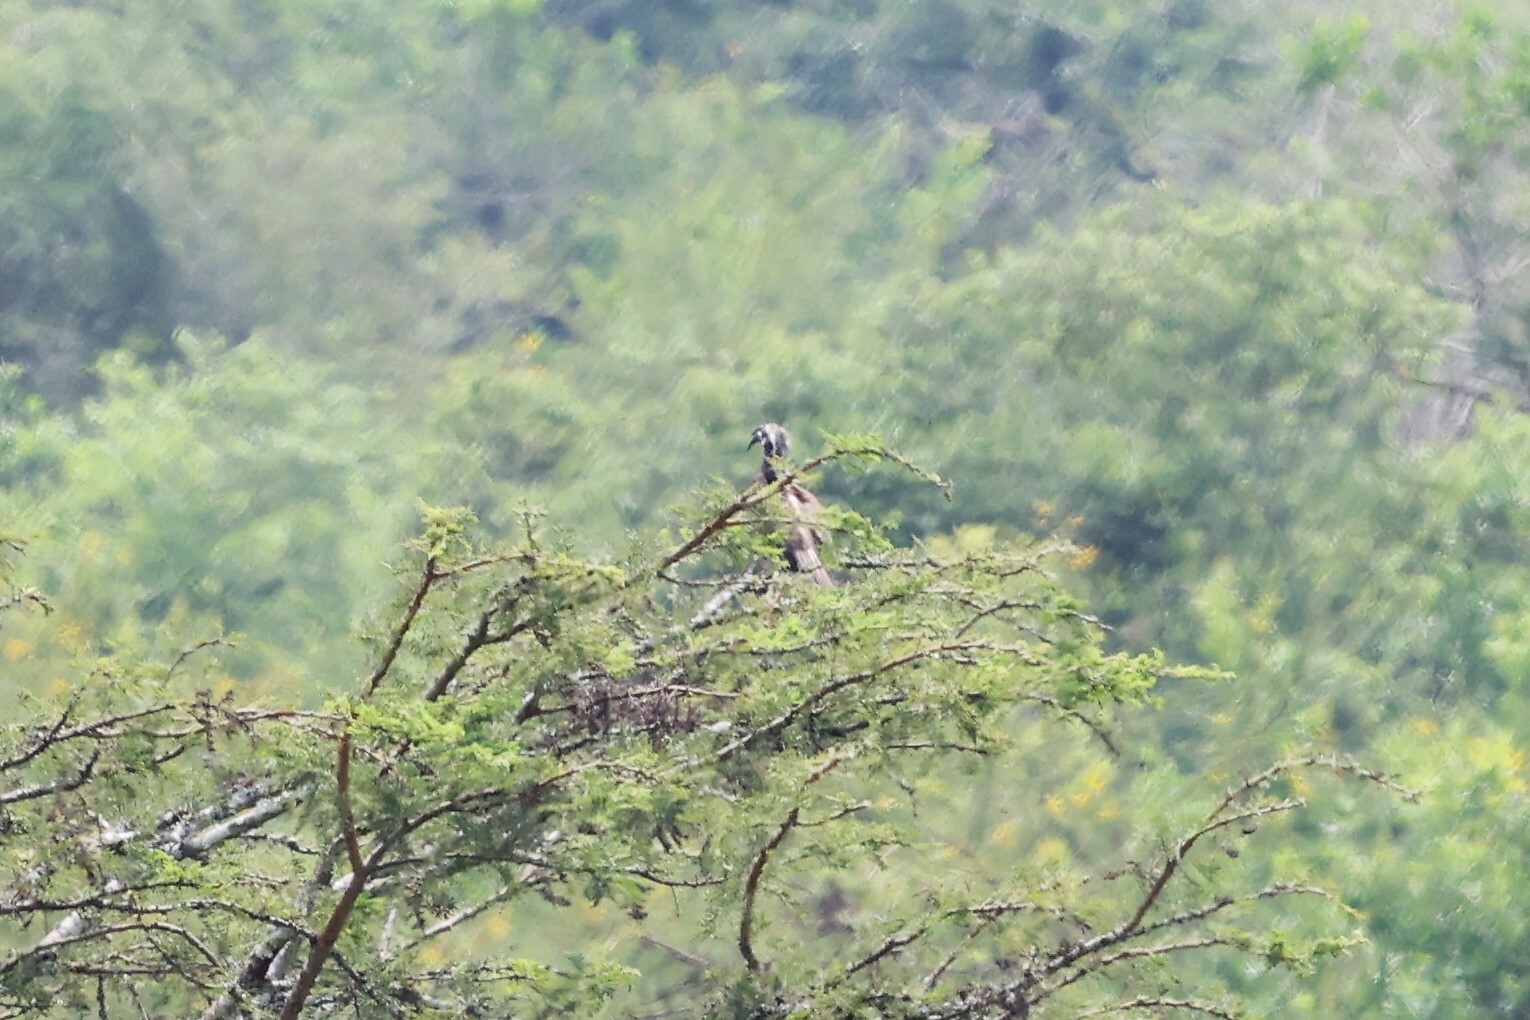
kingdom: Animalia
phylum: Chordata
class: Aves
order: Bucerotiformes
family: Bucerotidae
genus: Lophoceros
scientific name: Lophoceros nasutus
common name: African grey hornbill
